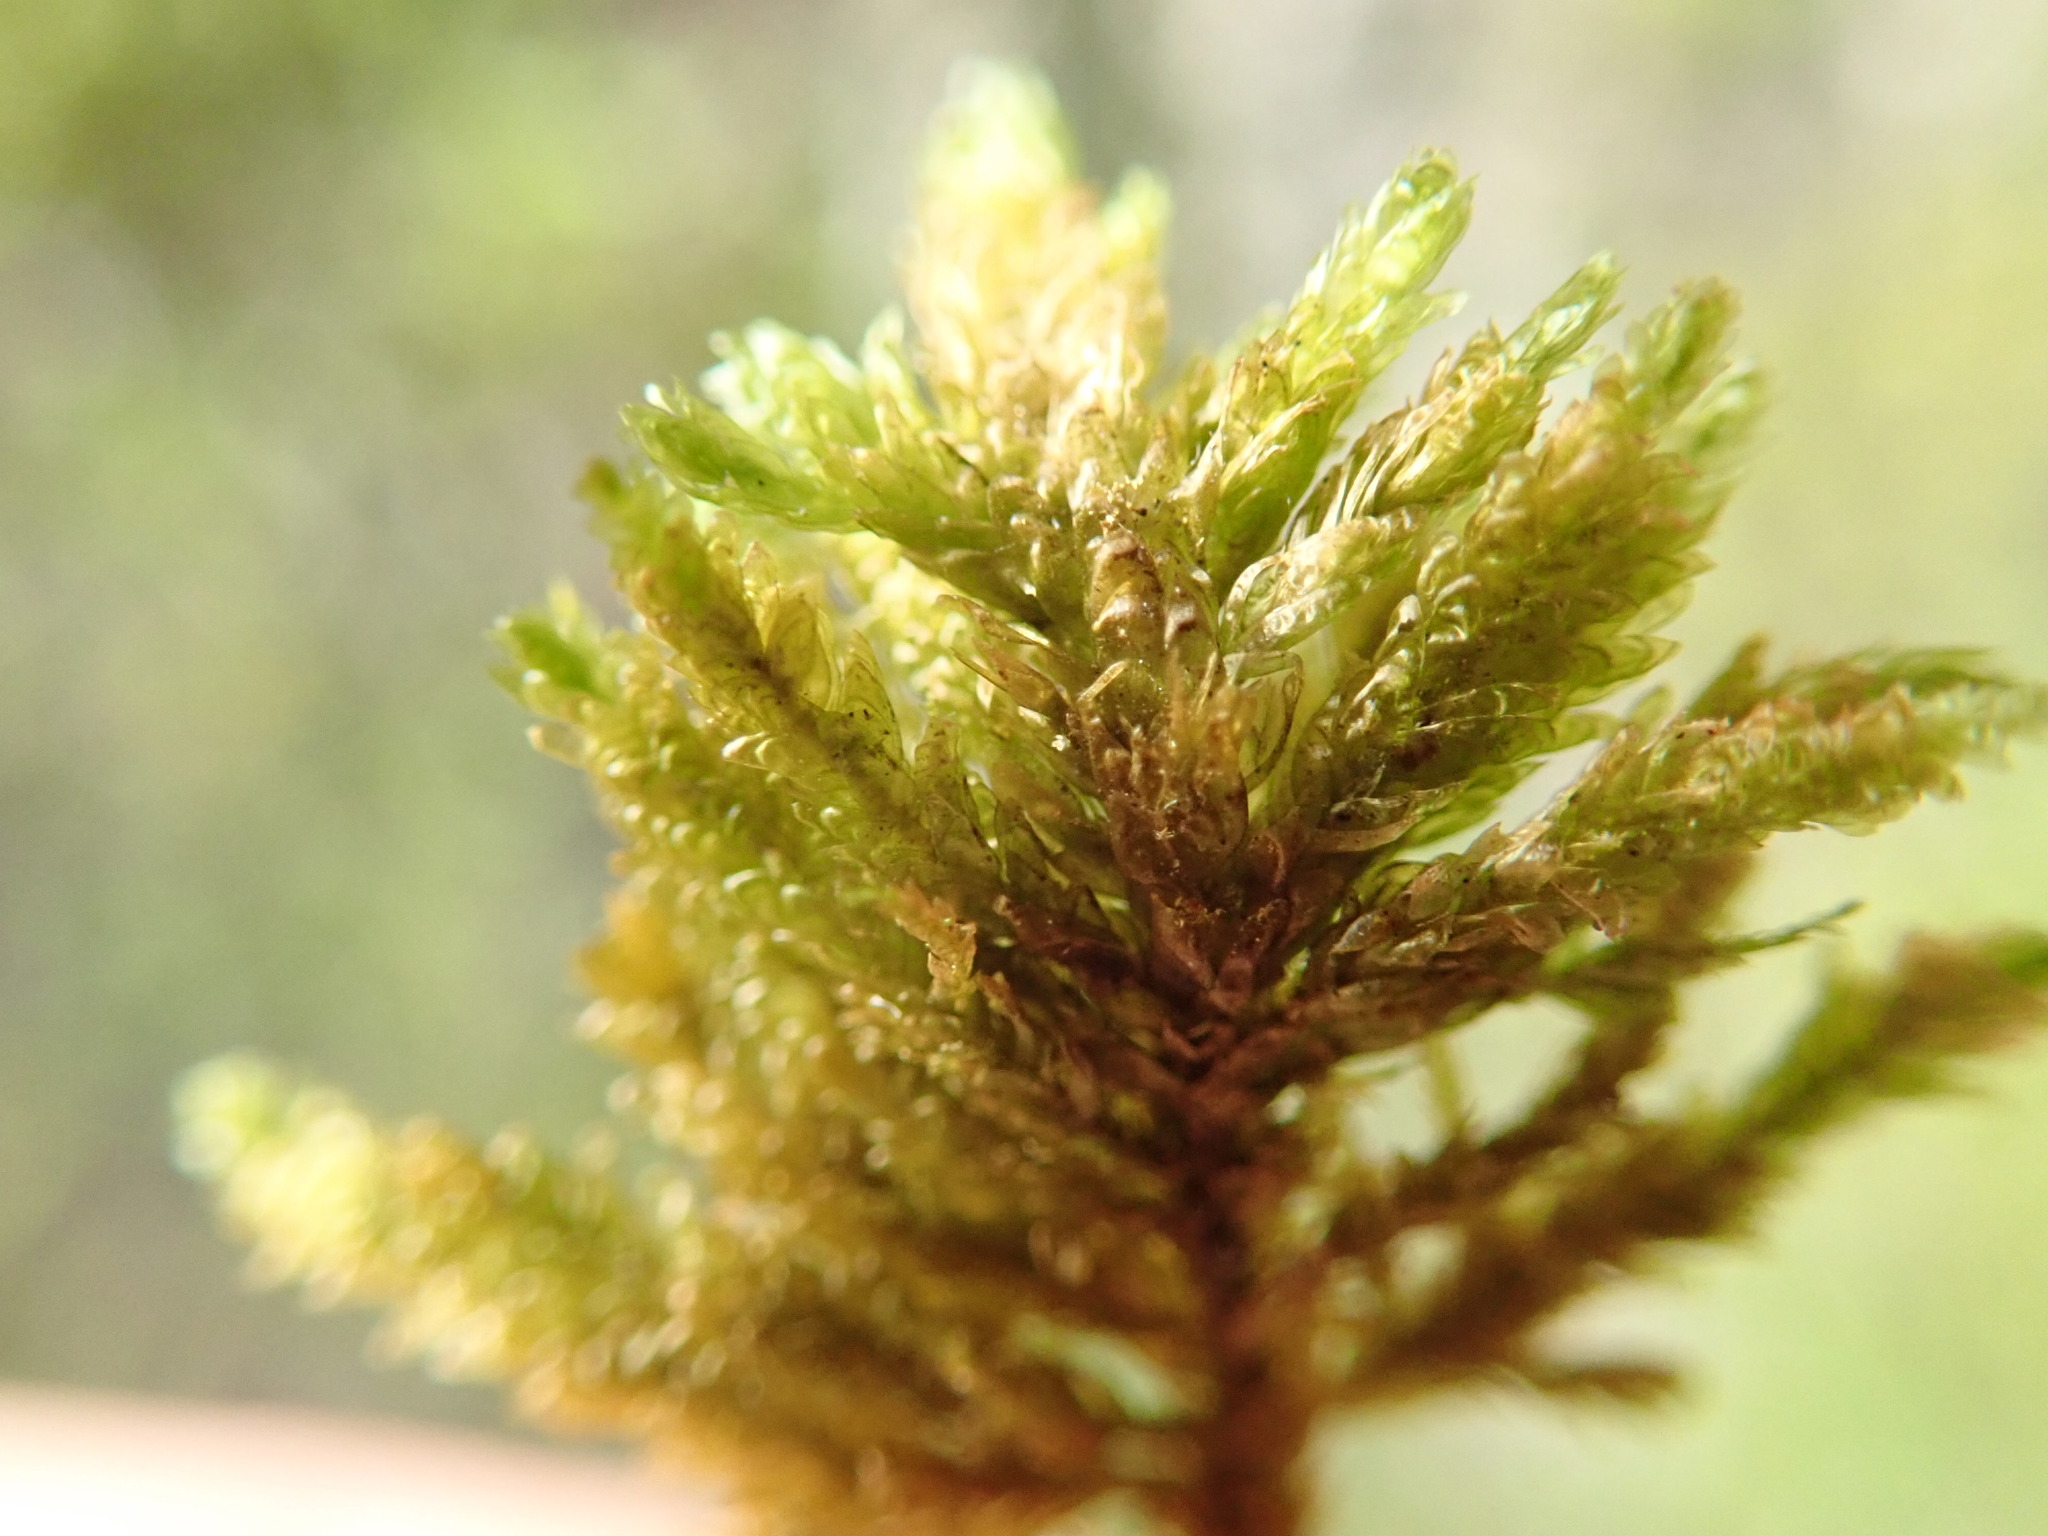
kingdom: Plantae
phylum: Bryophyta
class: Bryopsida
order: Hypnales
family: Neckeraceae
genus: Metaneckera
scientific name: Metaneckera menziesii
